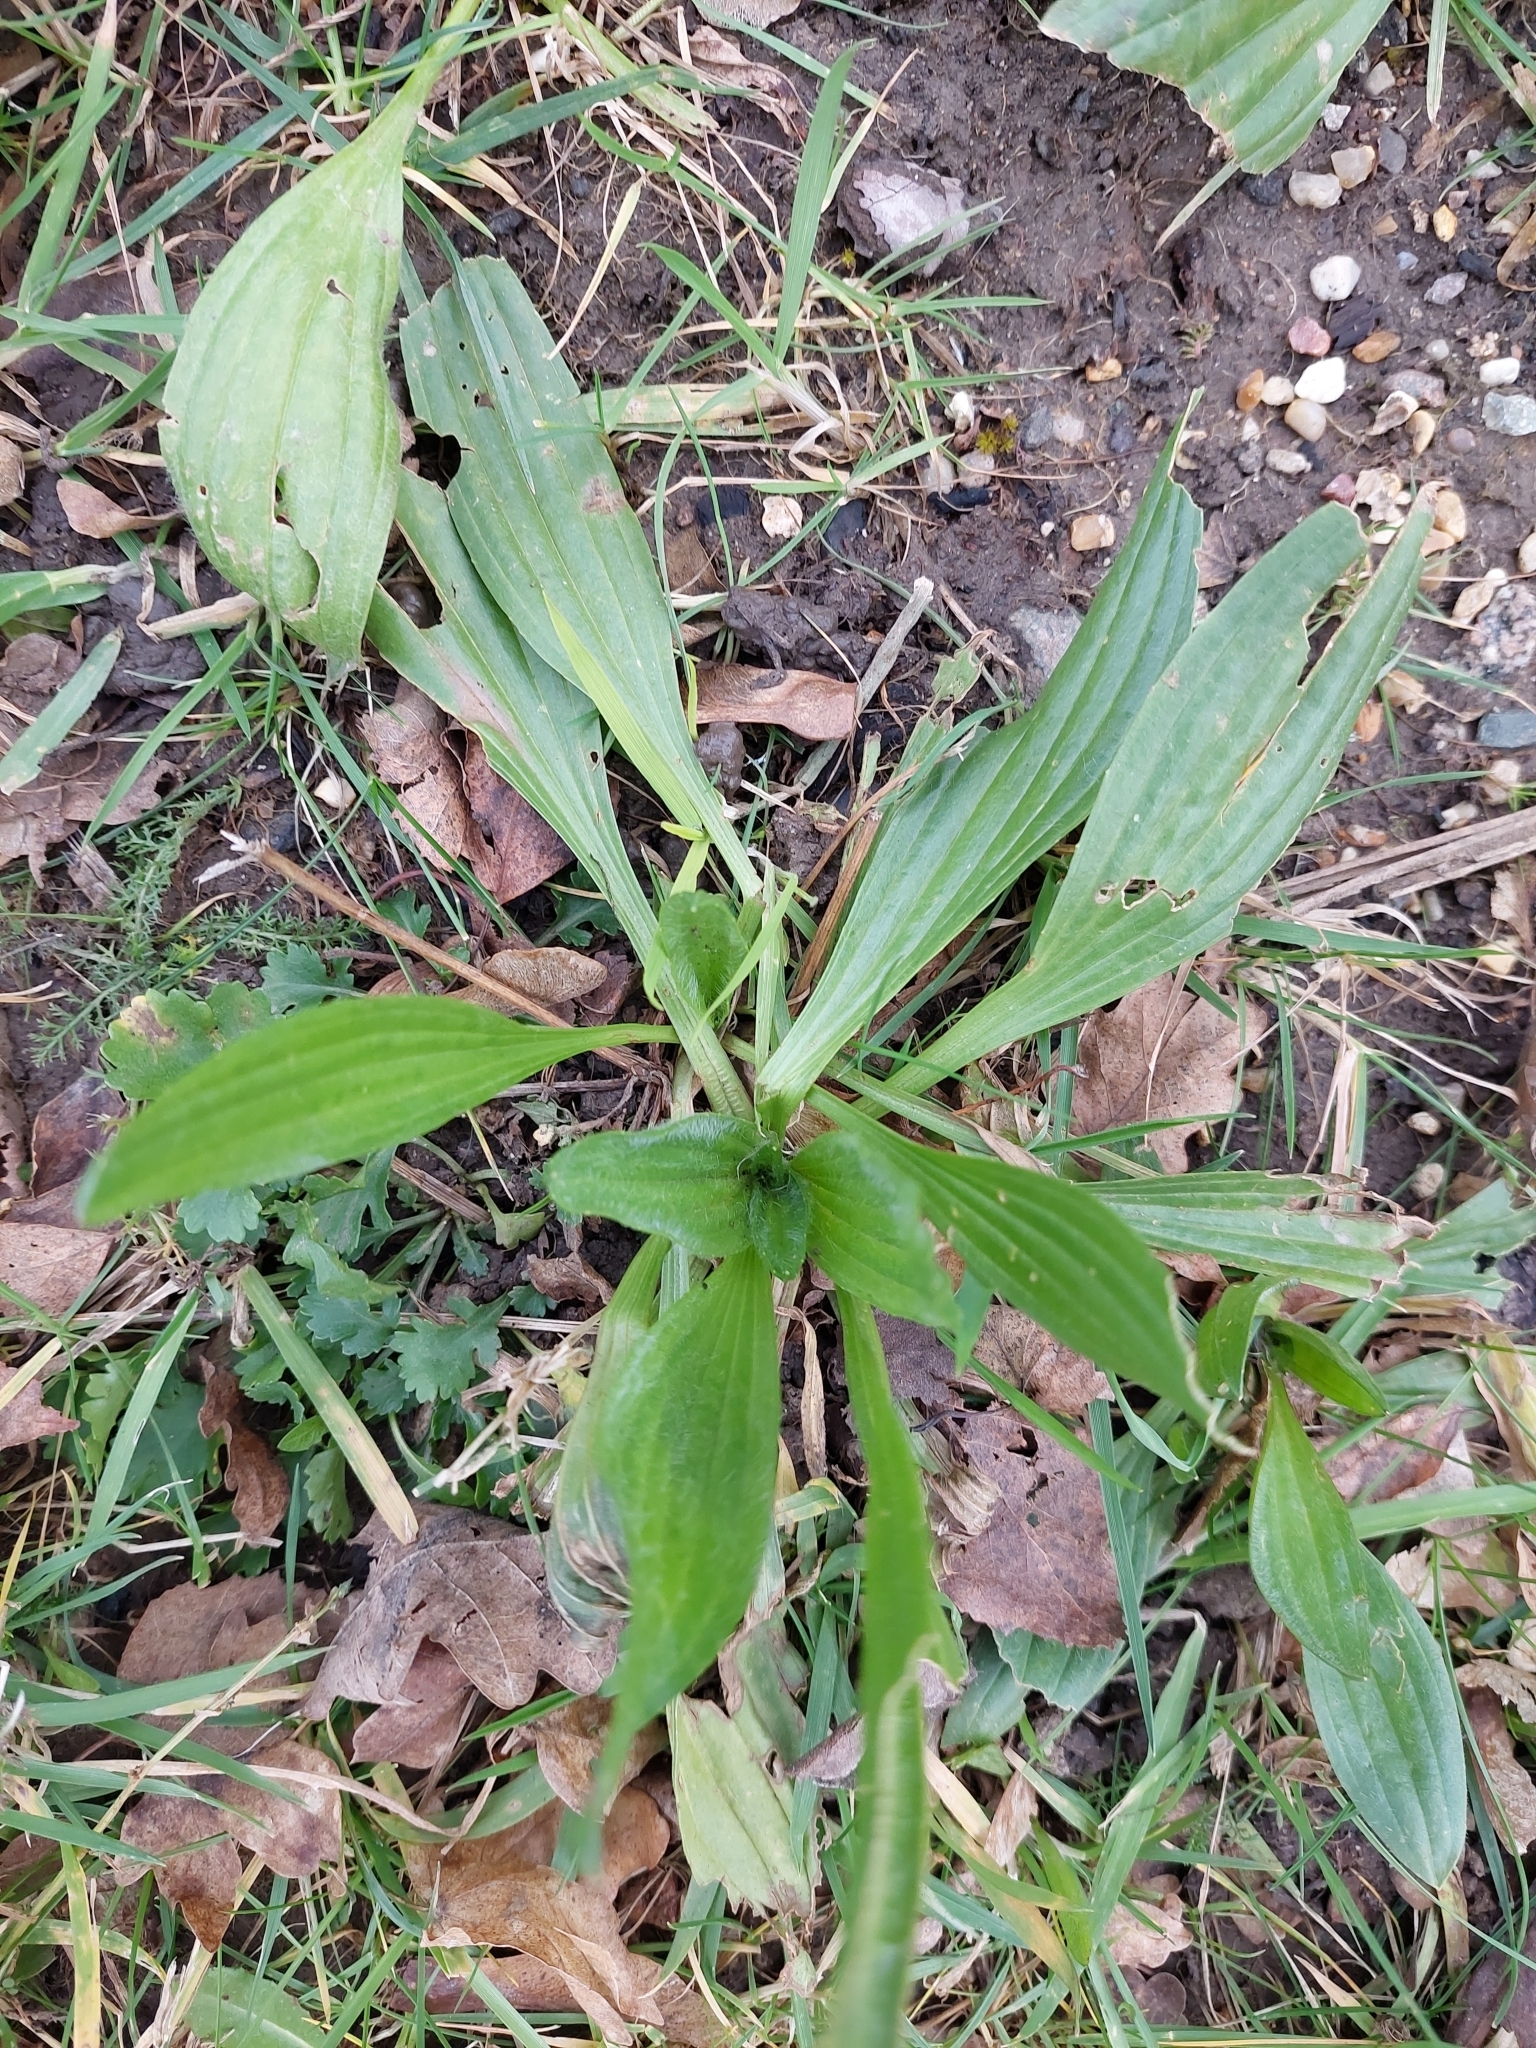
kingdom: Plantae
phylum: Tracheophyta
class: Magnoliopsida
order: Lamiales
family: Plantaginaceae
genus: Plantago
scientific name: Plantago lanceolata
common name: Ribwort plantain
